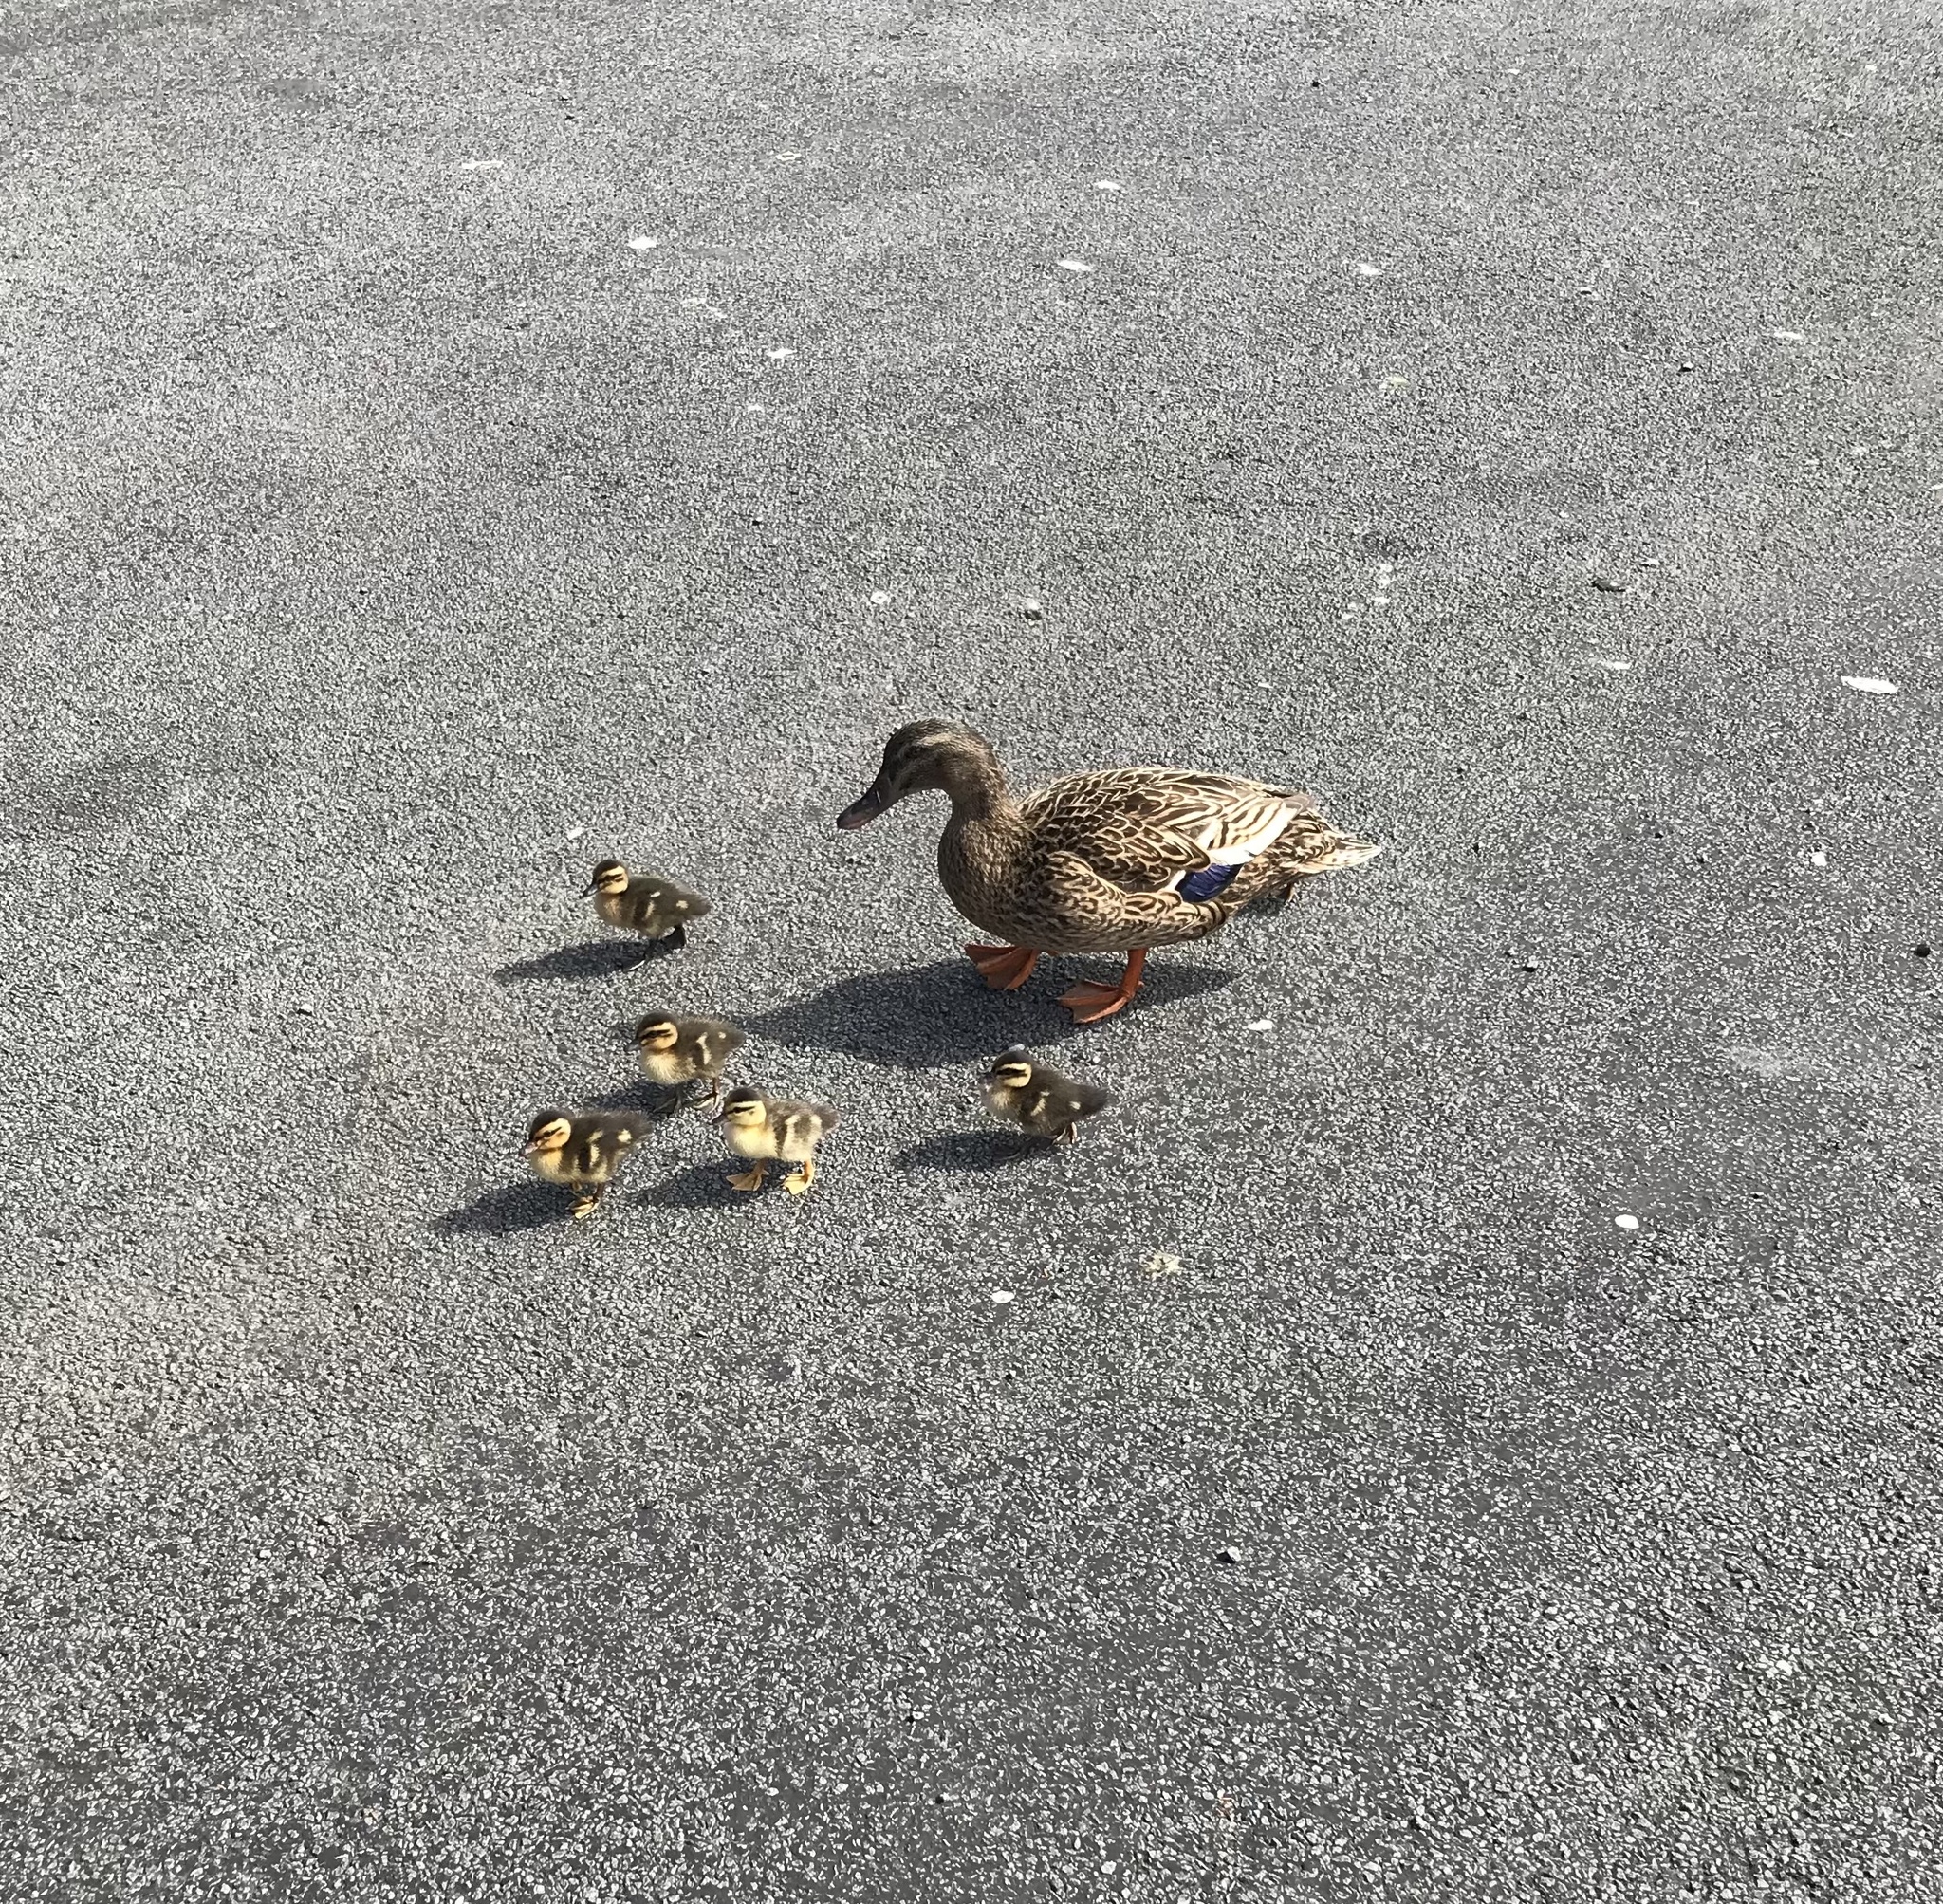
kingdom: Animalia
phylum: Chordata
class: Aves
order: Anseriformes
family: Anatidae
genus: Anas
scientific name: Anas
